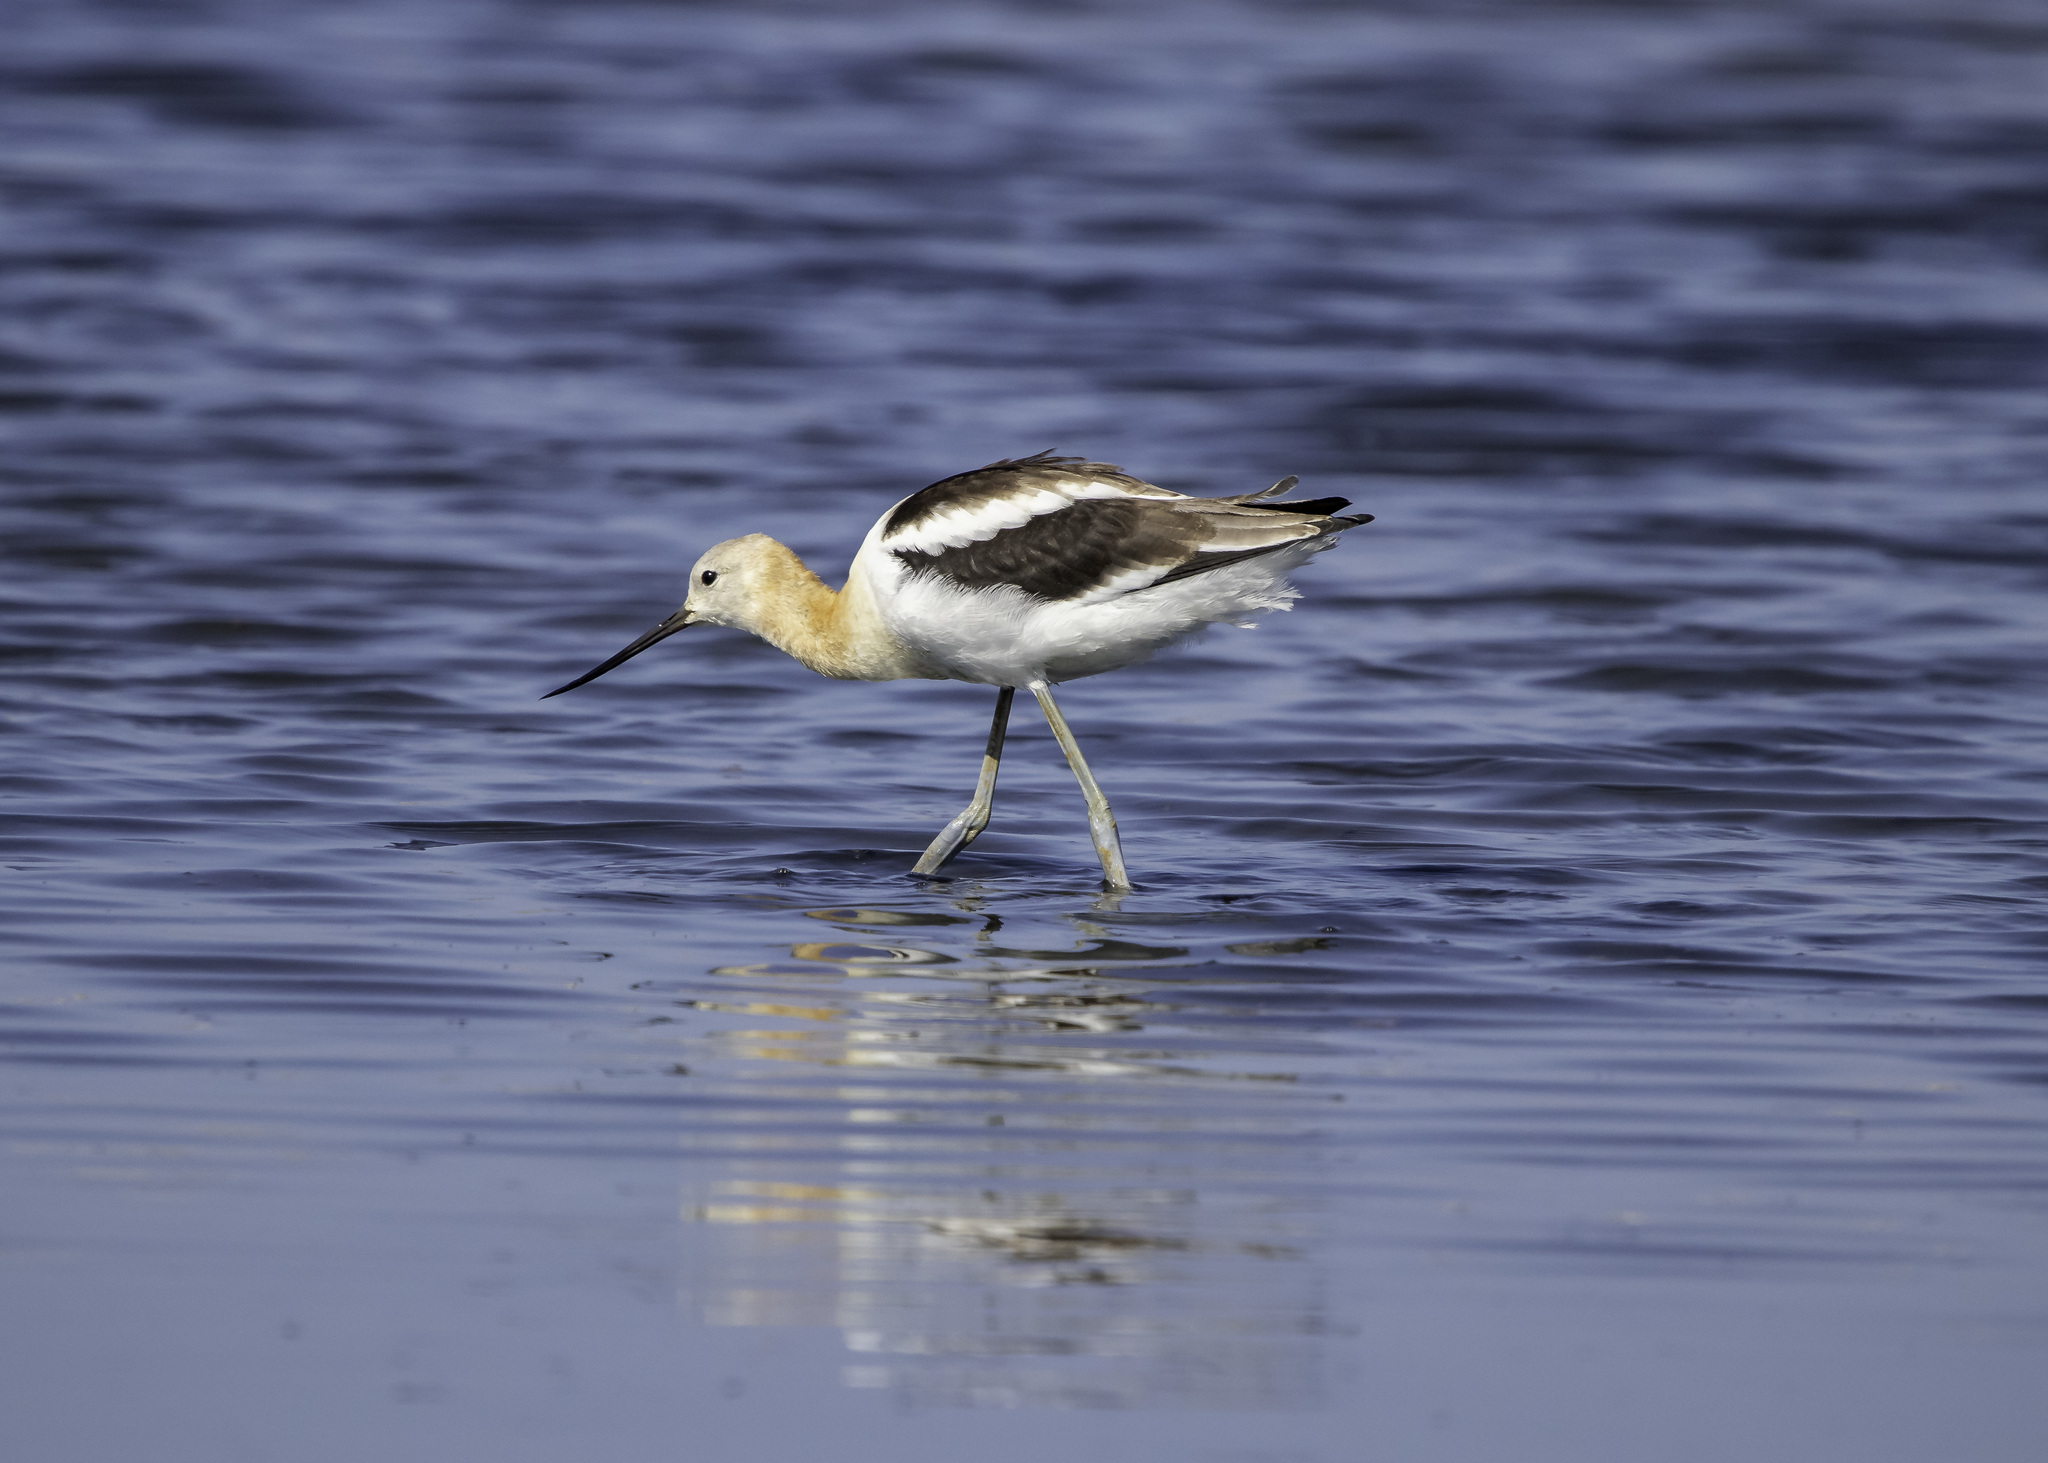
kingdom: Animalia
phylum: Chordata
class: Aves
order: Charadriiformes
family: Recurvirostridae
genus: Recurvirostra
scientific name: Recurvirostra americana
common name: American avocet
